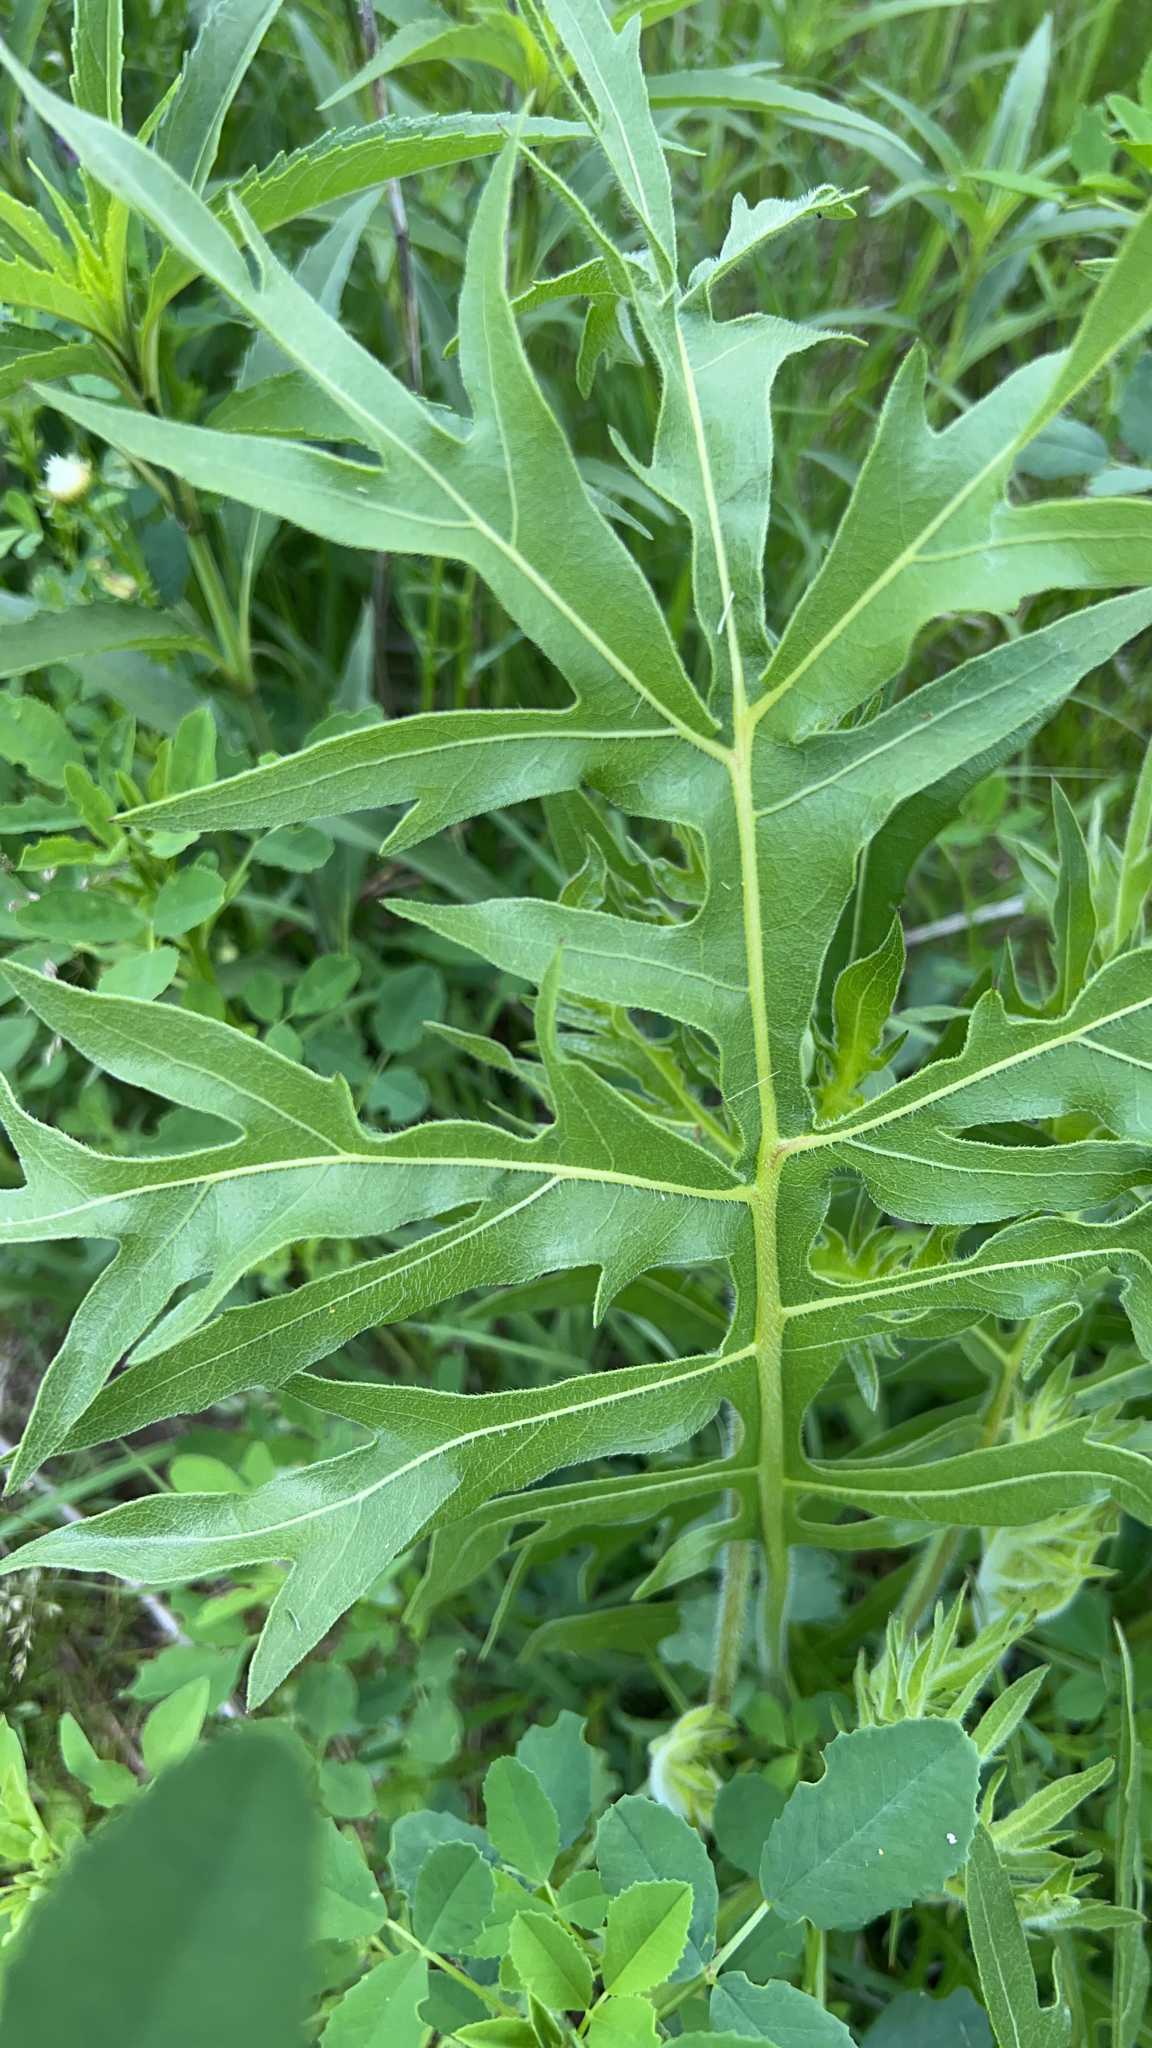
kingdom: Plantae
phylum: Tracheophyta
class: Magnoliopsida
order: Asterales
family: Asteraceae
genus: Silphium
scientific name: Silphium laciniatum
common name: Polarplant
